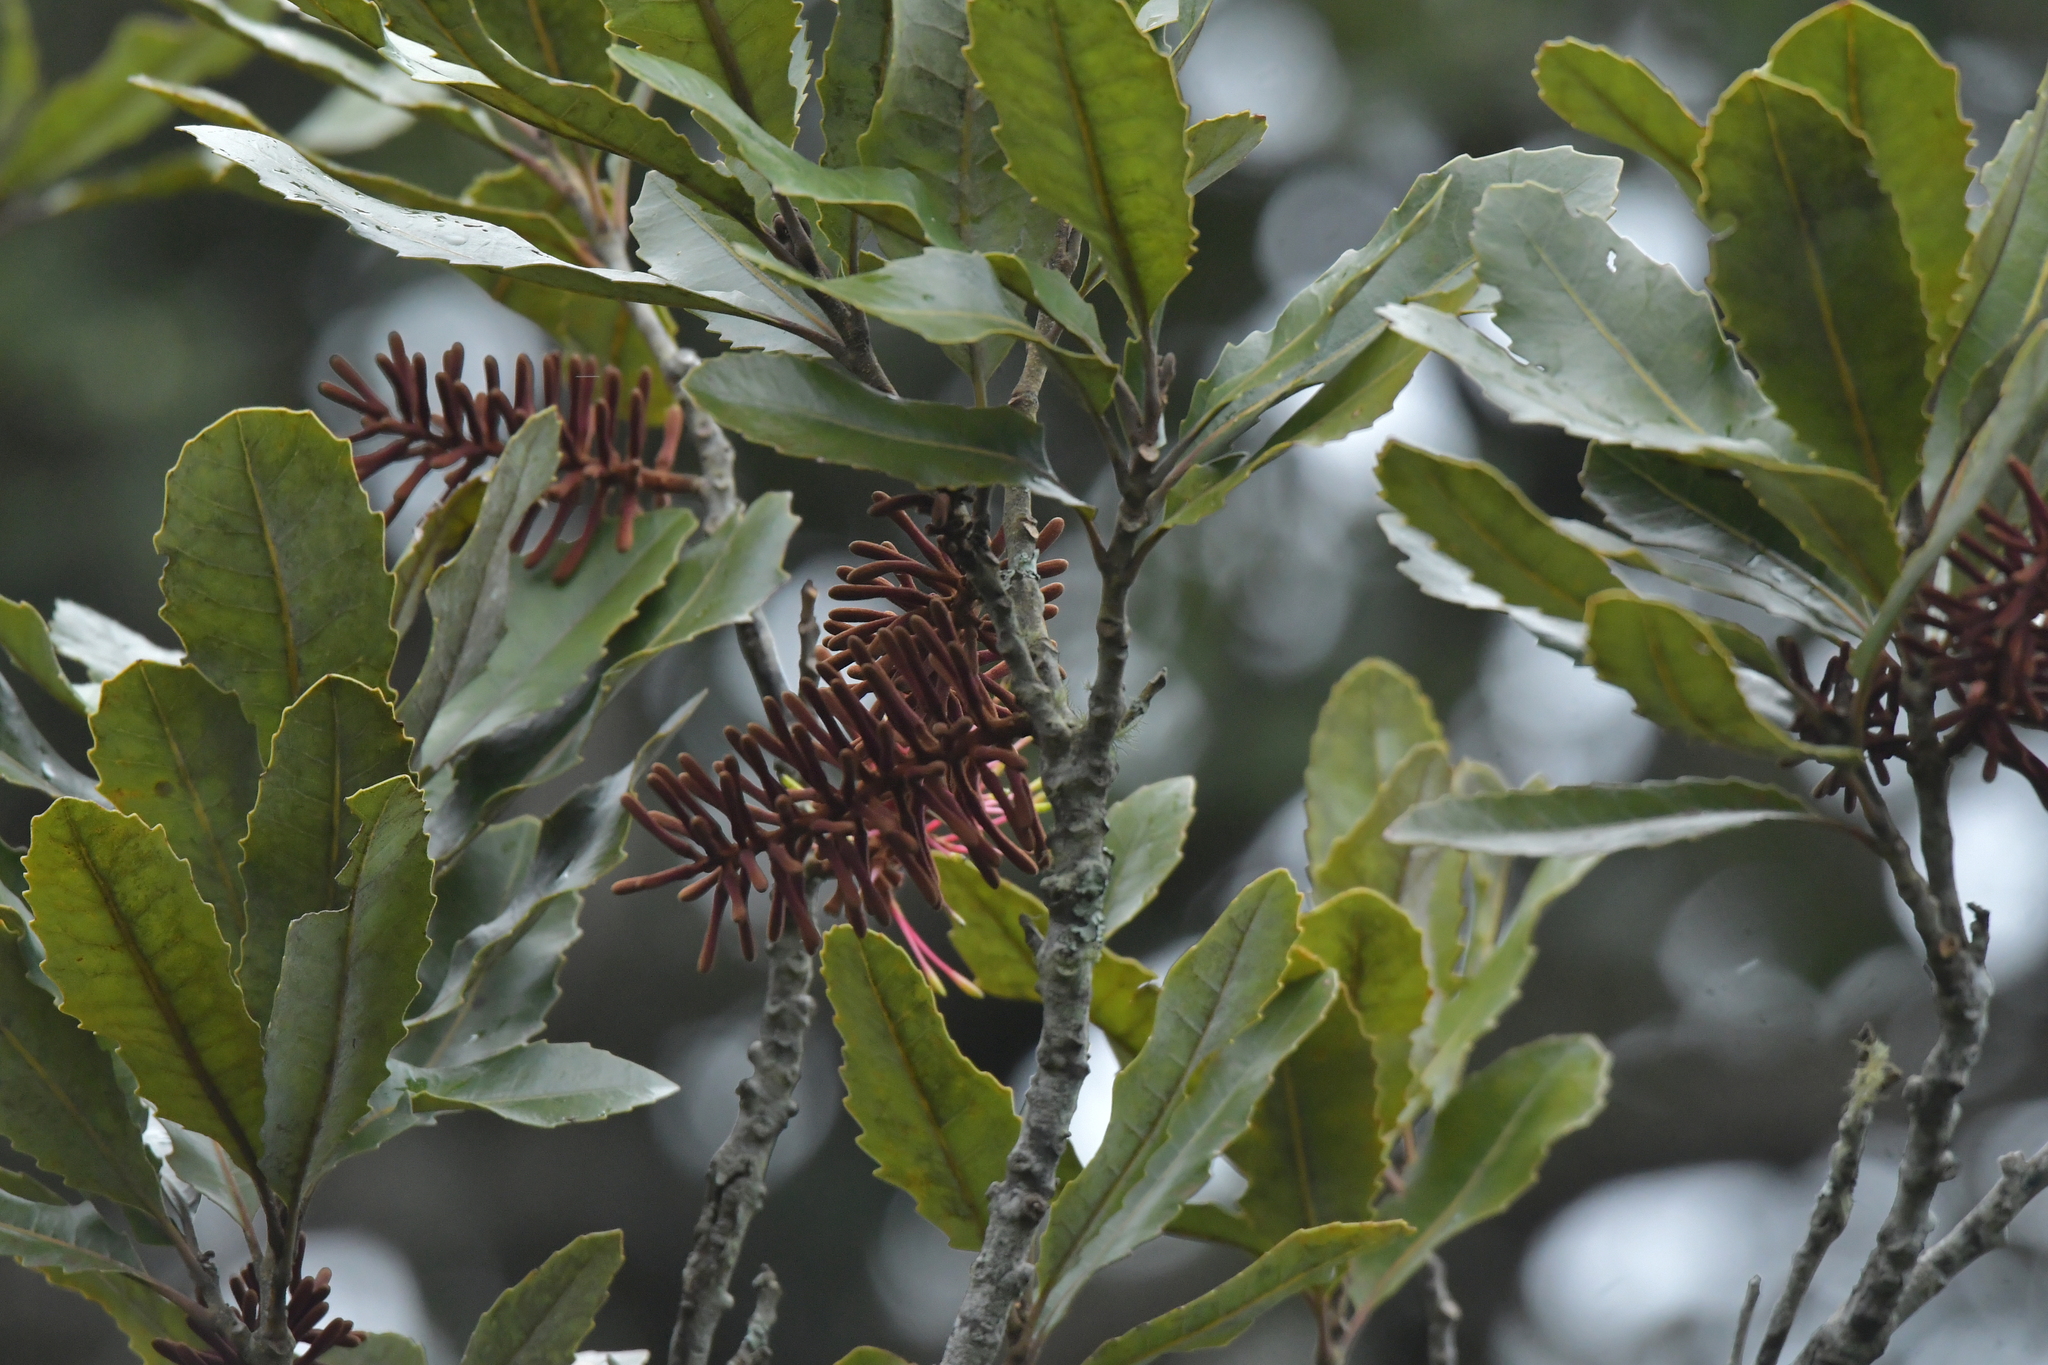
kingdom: Plantae
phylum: Tracheophyta
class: Magnoliopsida
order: Proteales
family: Proteaceae
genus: Knightia
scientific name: Knightia excelsa
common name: New zealand-honeysuckle
